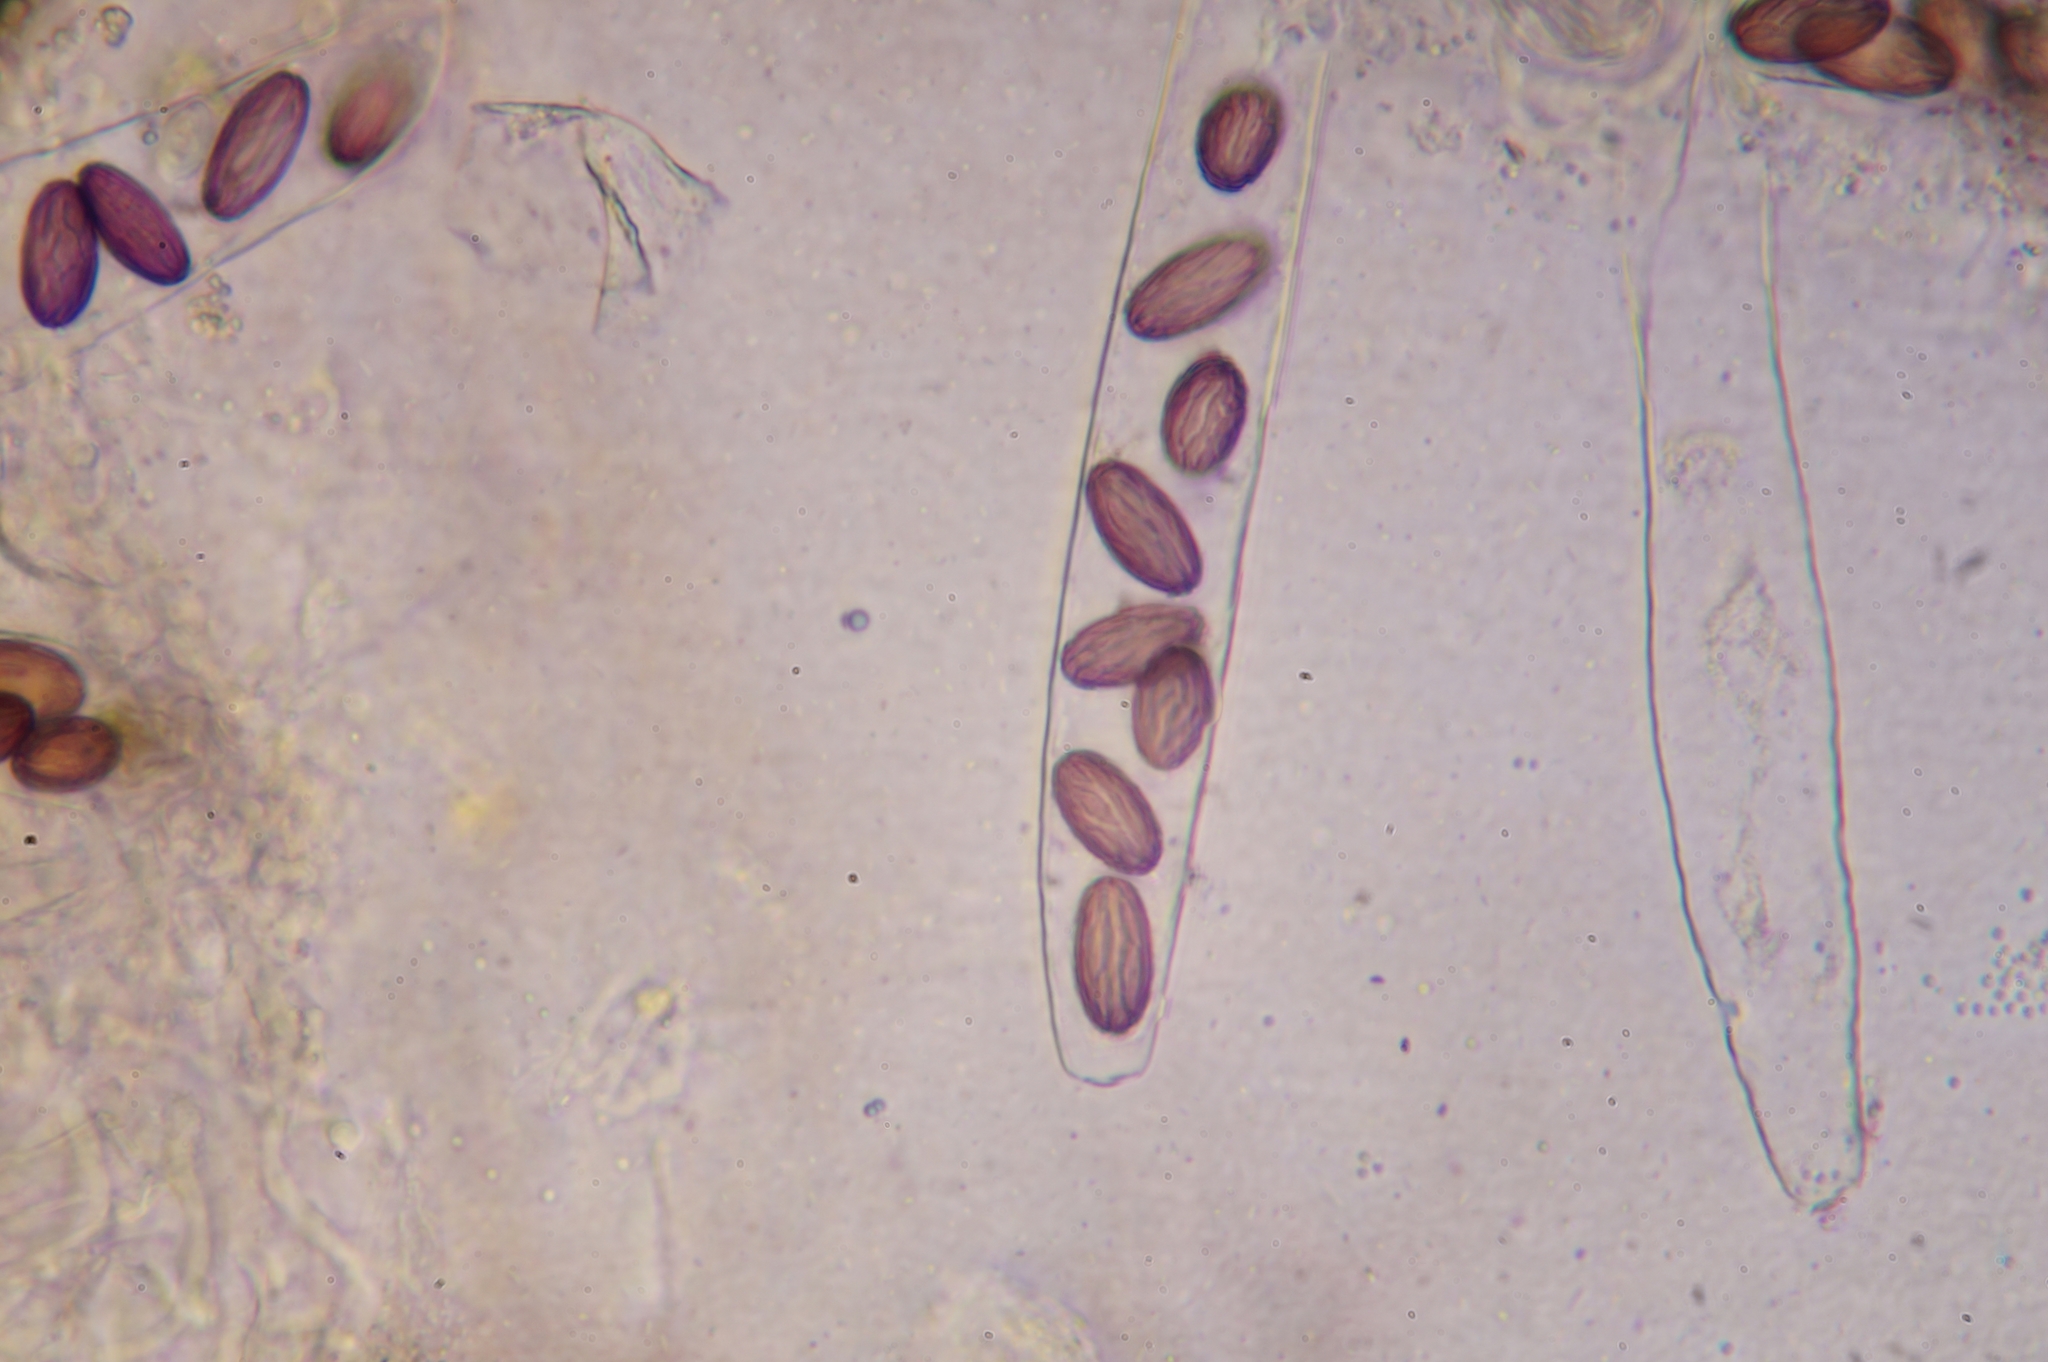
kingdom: Fungi
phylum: Ascomycota
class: Pezizomycetes
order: Pezizales
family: Ascobolaceae
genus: Ascobolus
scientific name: Ascobolus sacchariferus
